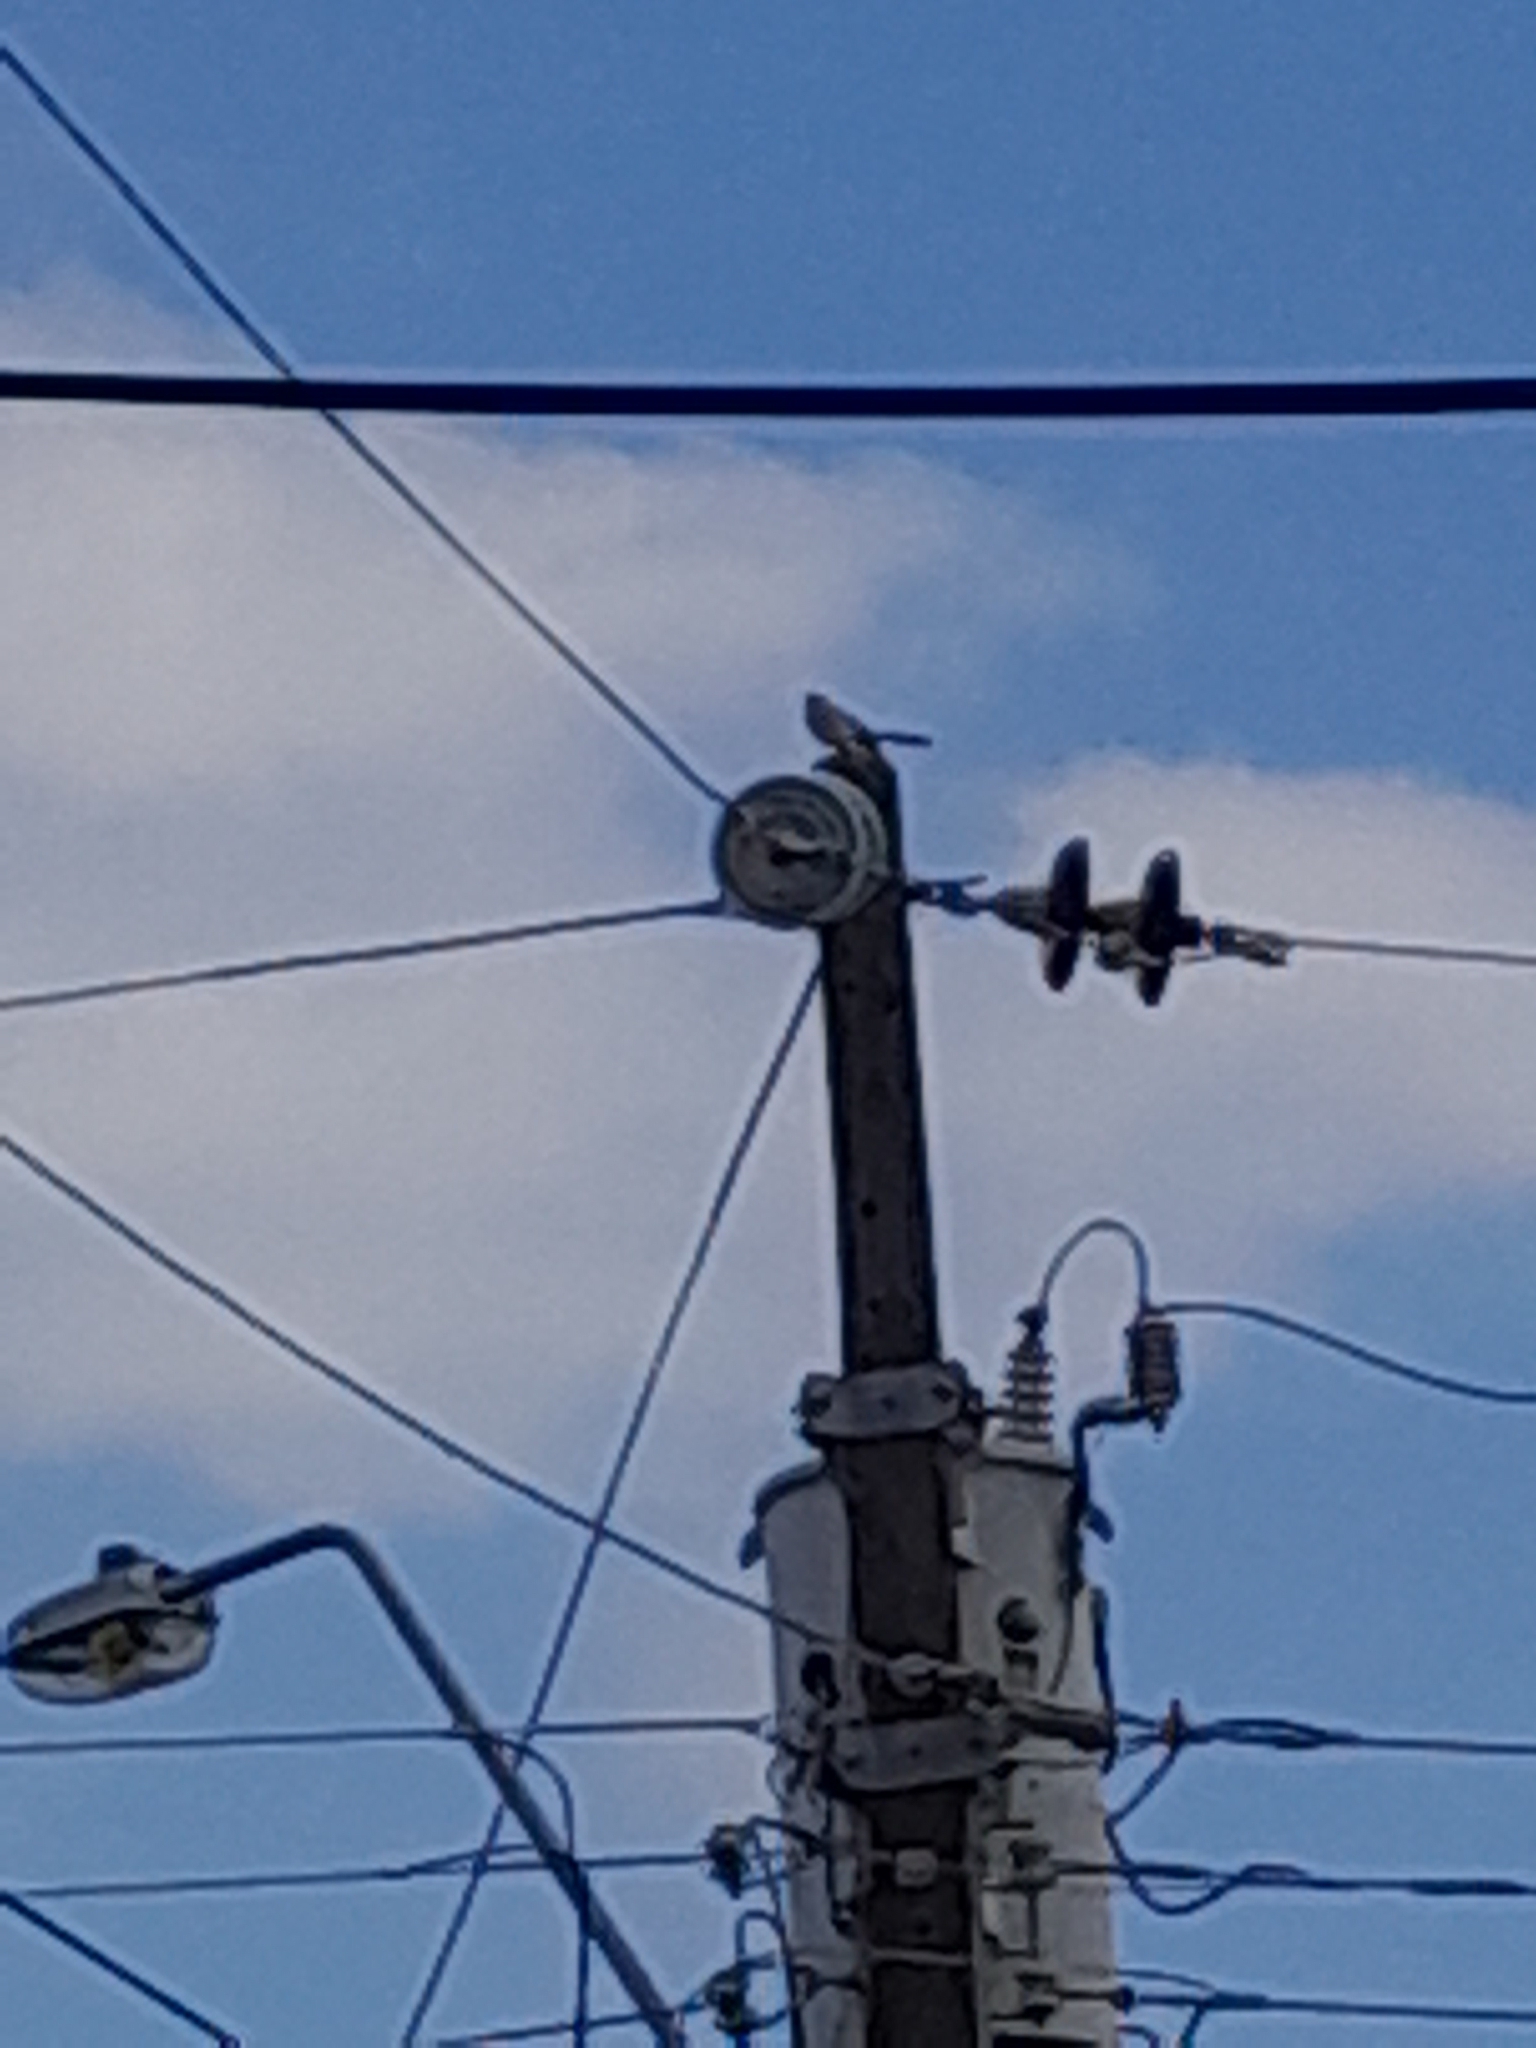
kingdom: Animalia
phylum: Chordata
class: Aves
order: Passeriformes
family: Mimidae
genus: Mimus
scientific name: Mimus gilvus
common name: Tropical mockingbird
